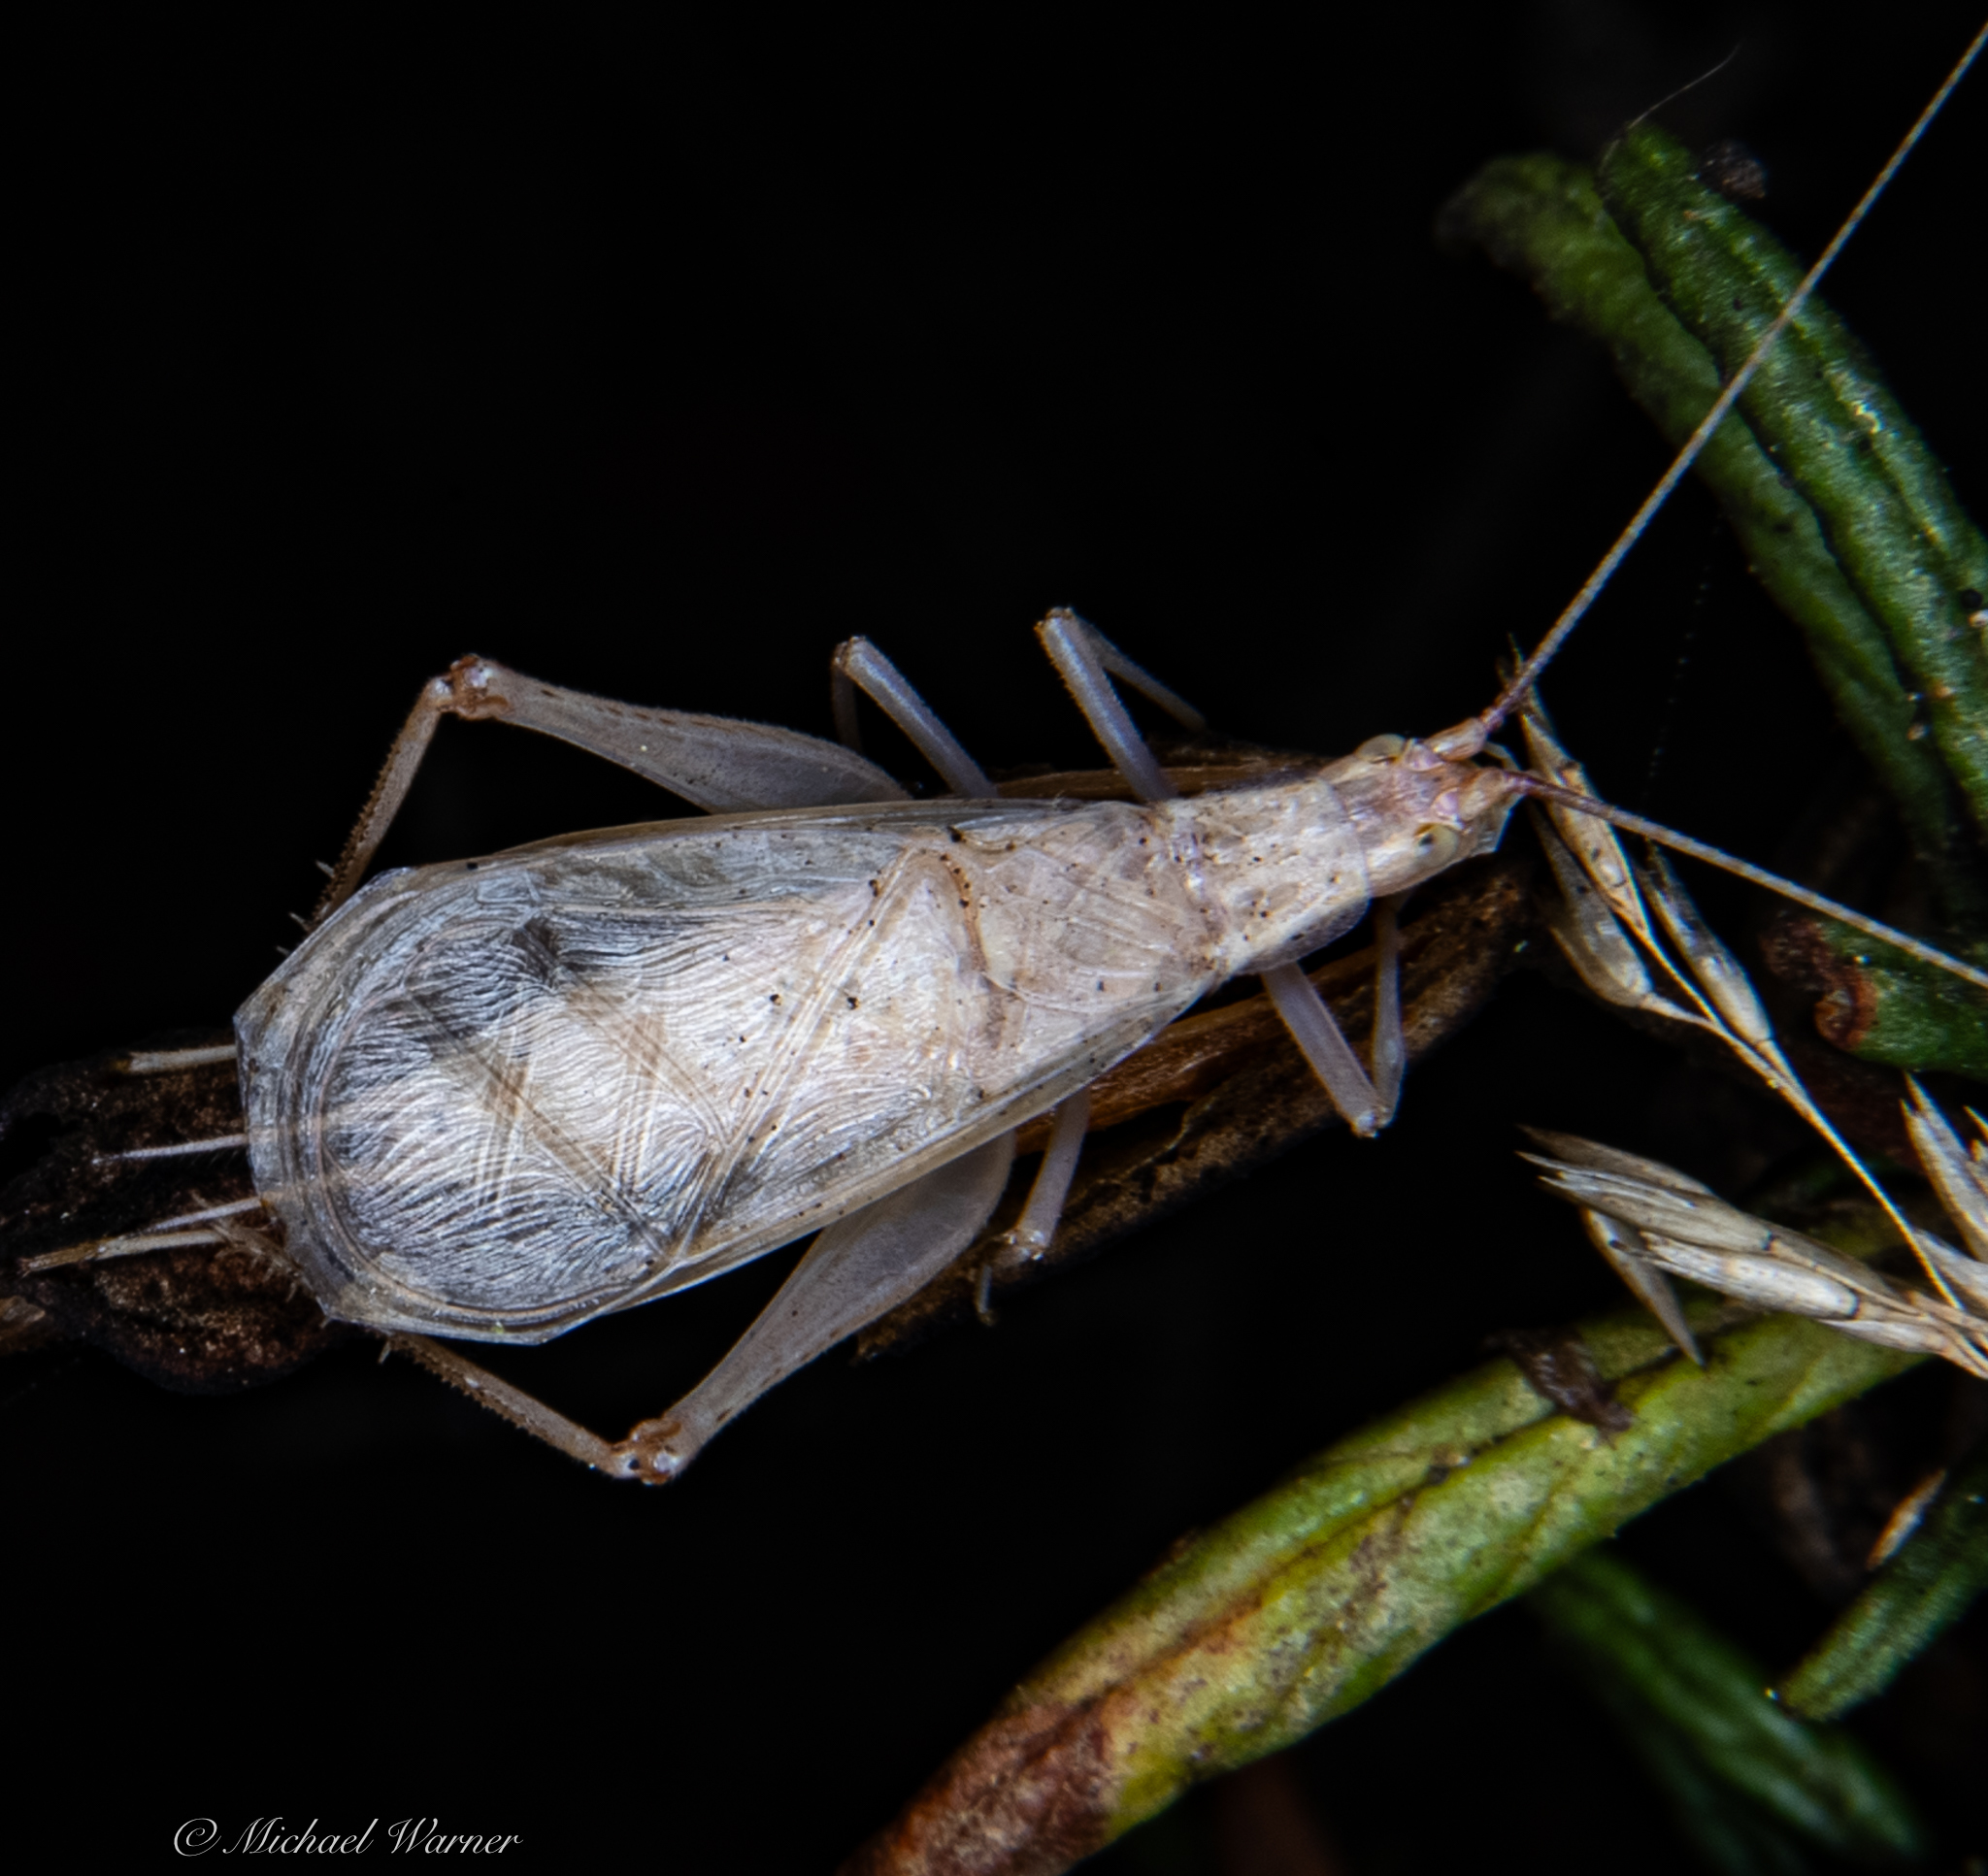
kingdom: Animalia
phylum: Arthropoda
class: Insecta
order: Orthoptera
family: Gryllidae
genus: Oecanthus
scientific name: Oecanthus californicus
